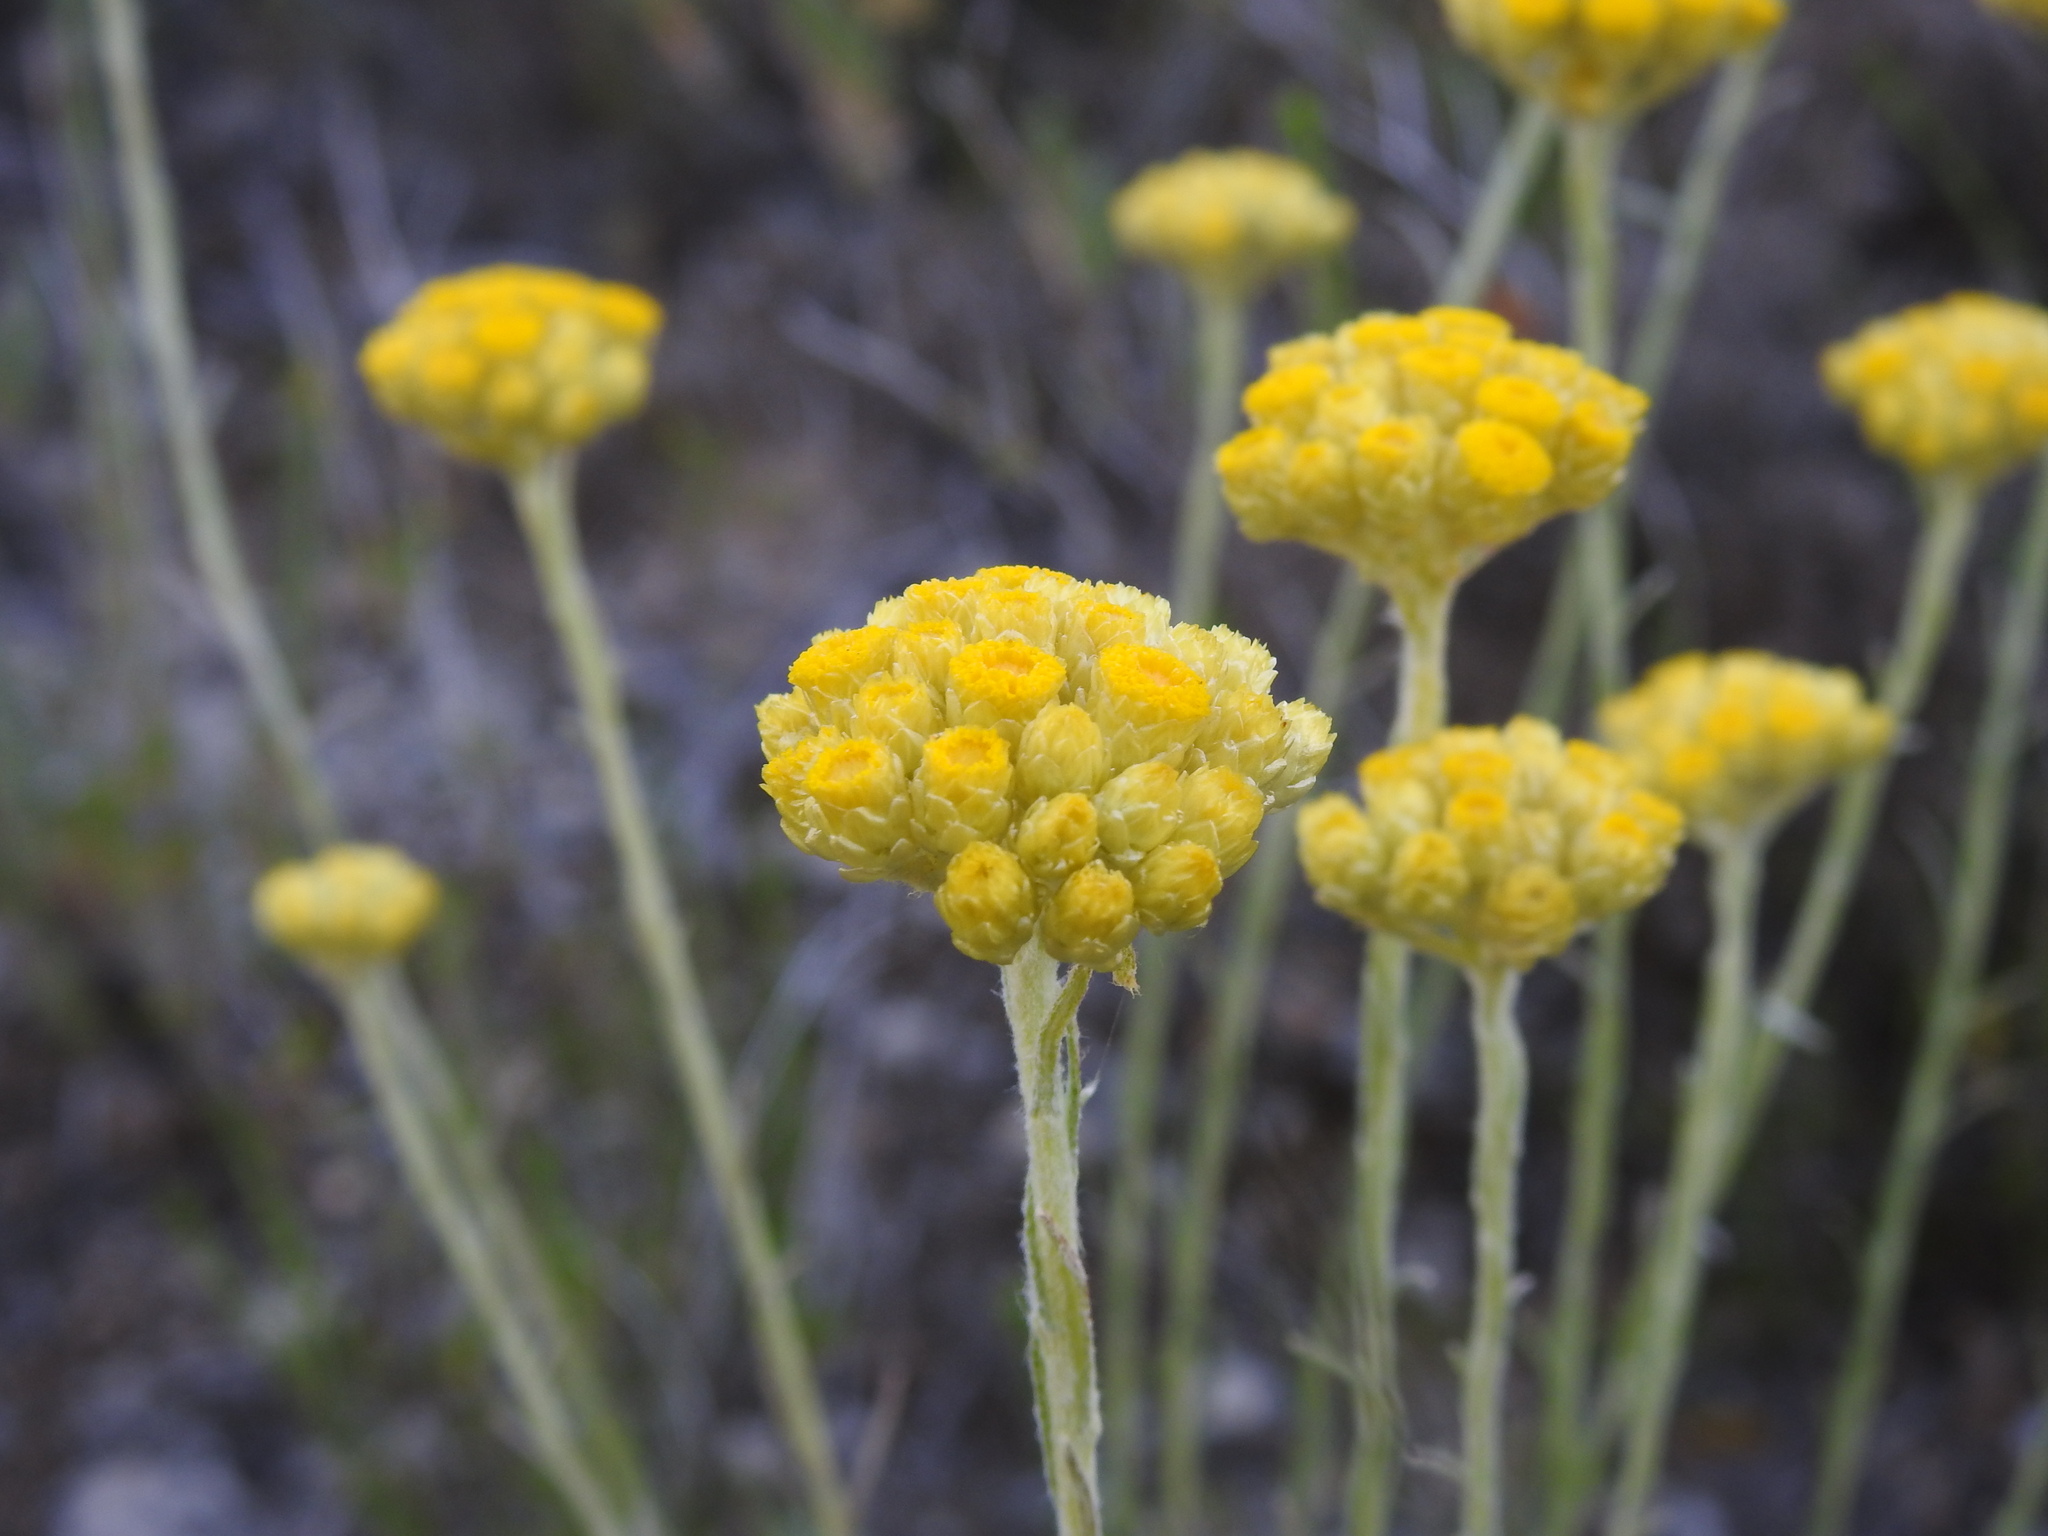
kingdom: Plantae
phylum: Tracheophyta
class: Magnoliopsida
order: Asterales
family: Asteraceae
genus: Helichrysum
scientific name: Helichrysum stoechas
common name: Goldilocks
